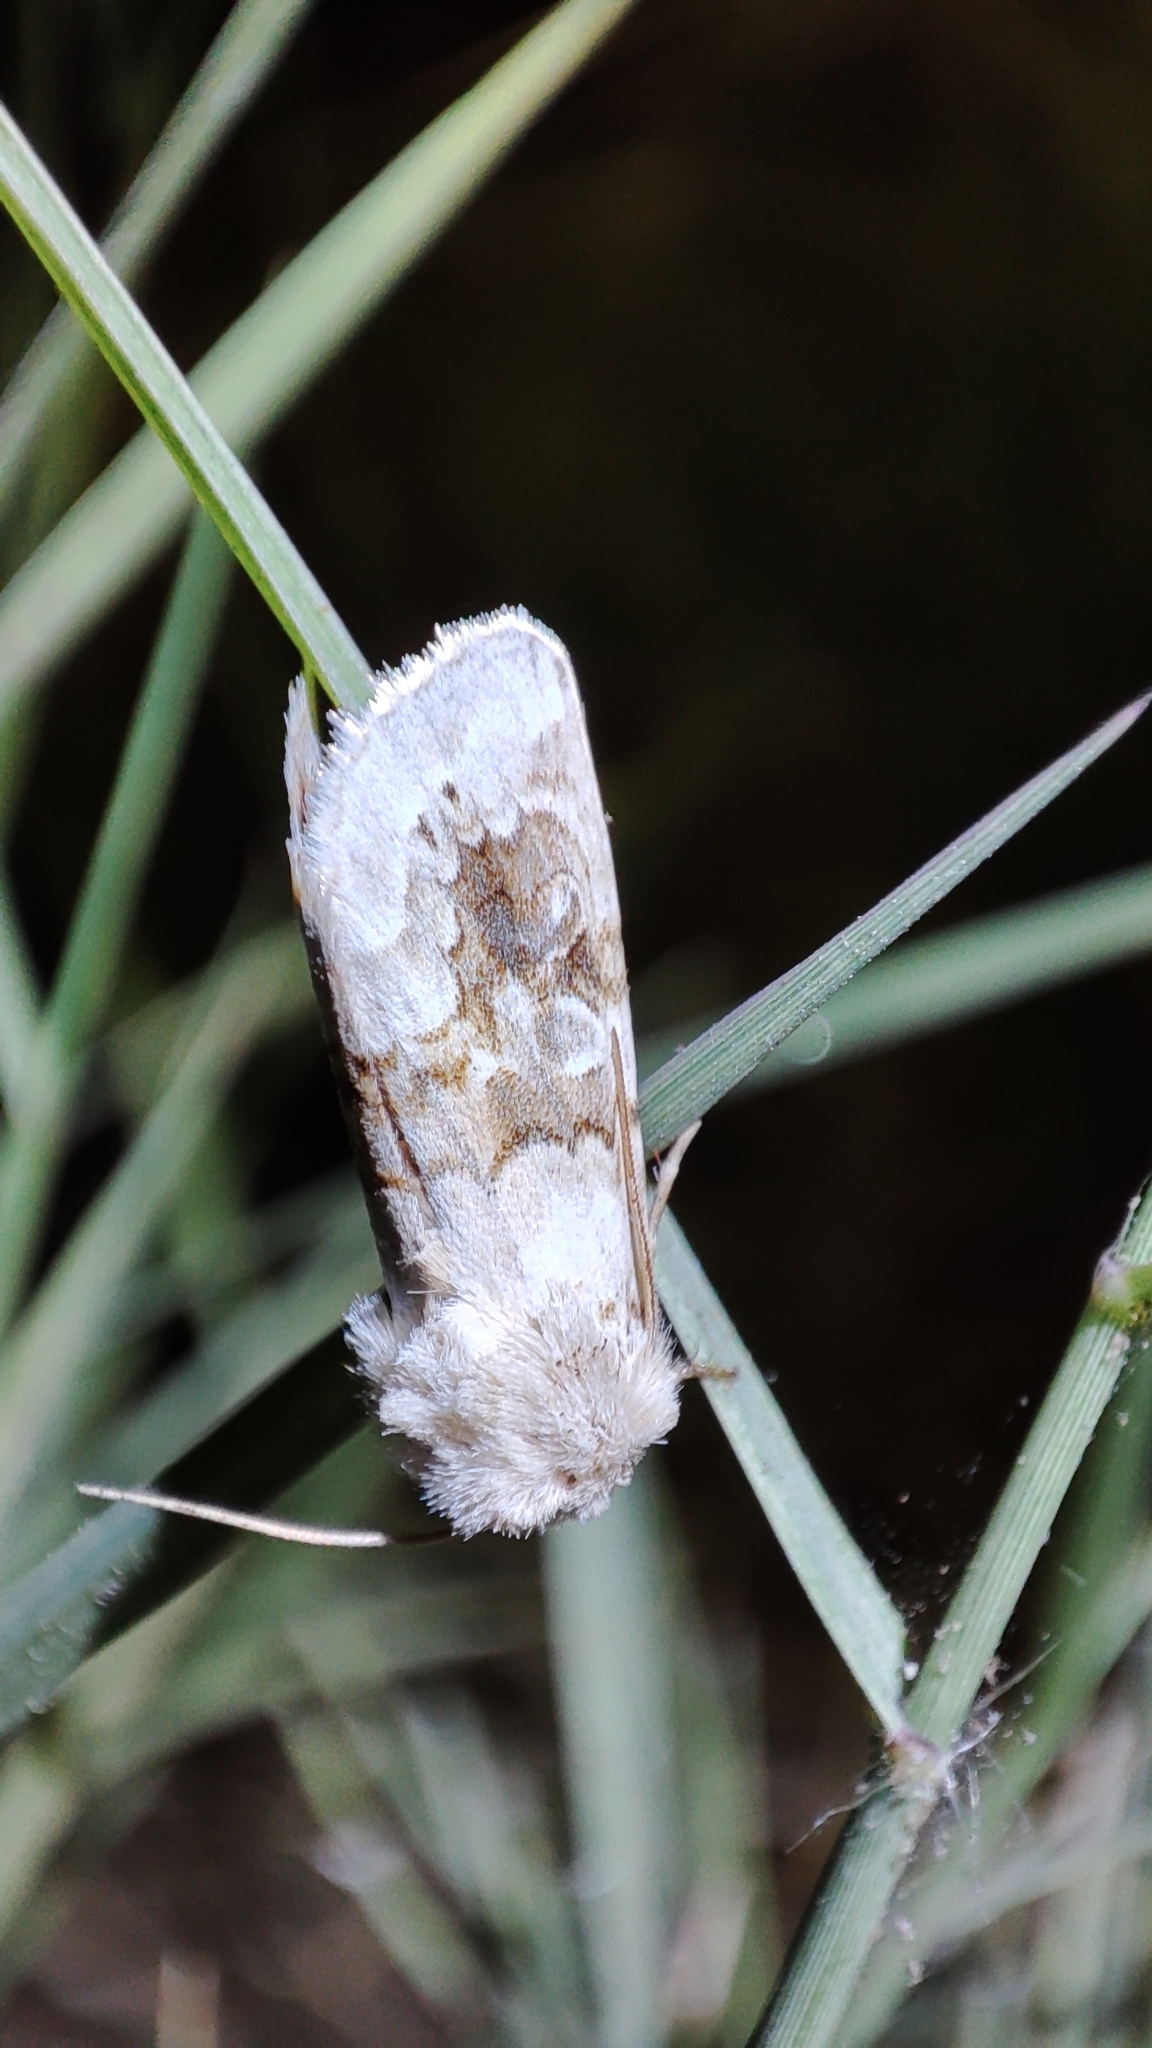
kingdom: Animalia
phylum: Arthropoda
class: Insecta
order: Lepidoptera
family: Noctuidae
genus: Hadena
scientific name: Hadena aberrans
